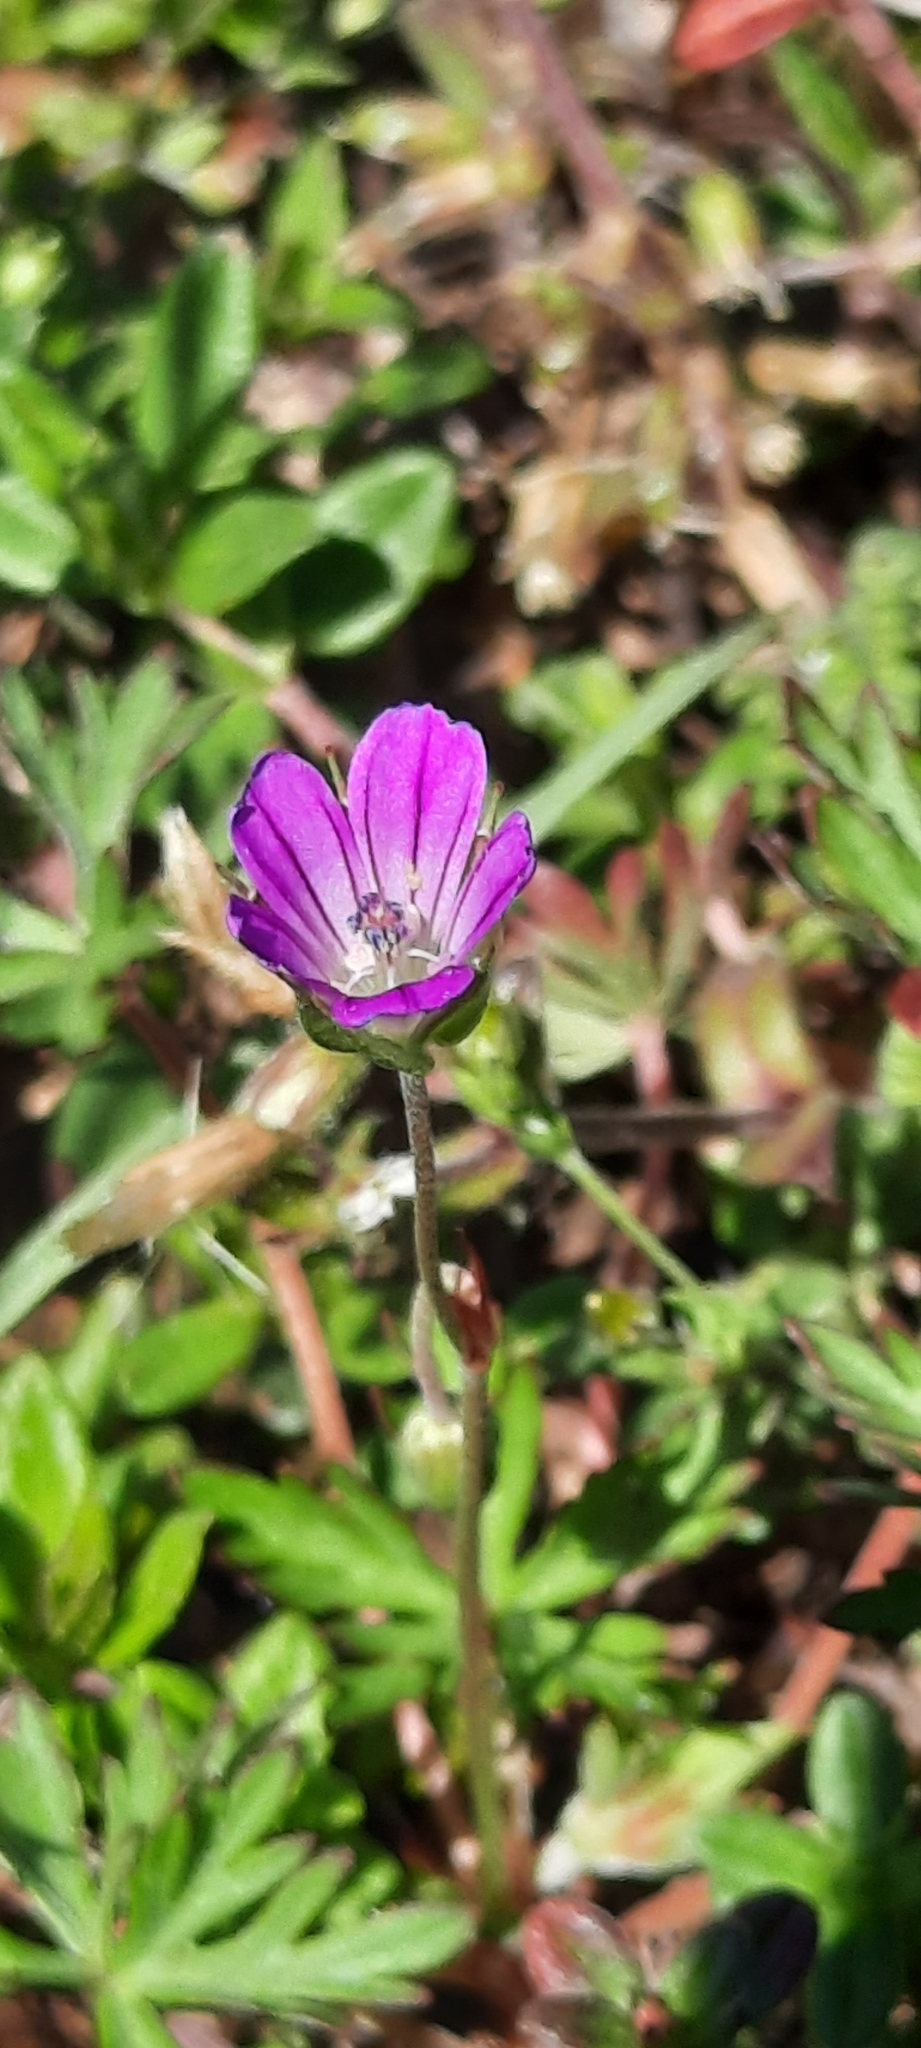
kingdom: Plantae
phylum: Tracheophyta
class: Magnoliopsida
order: Geraniales
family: Geraniaceae
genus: Geranium
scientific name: Geranium columbinum
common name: Long-stalked crane's-bill
